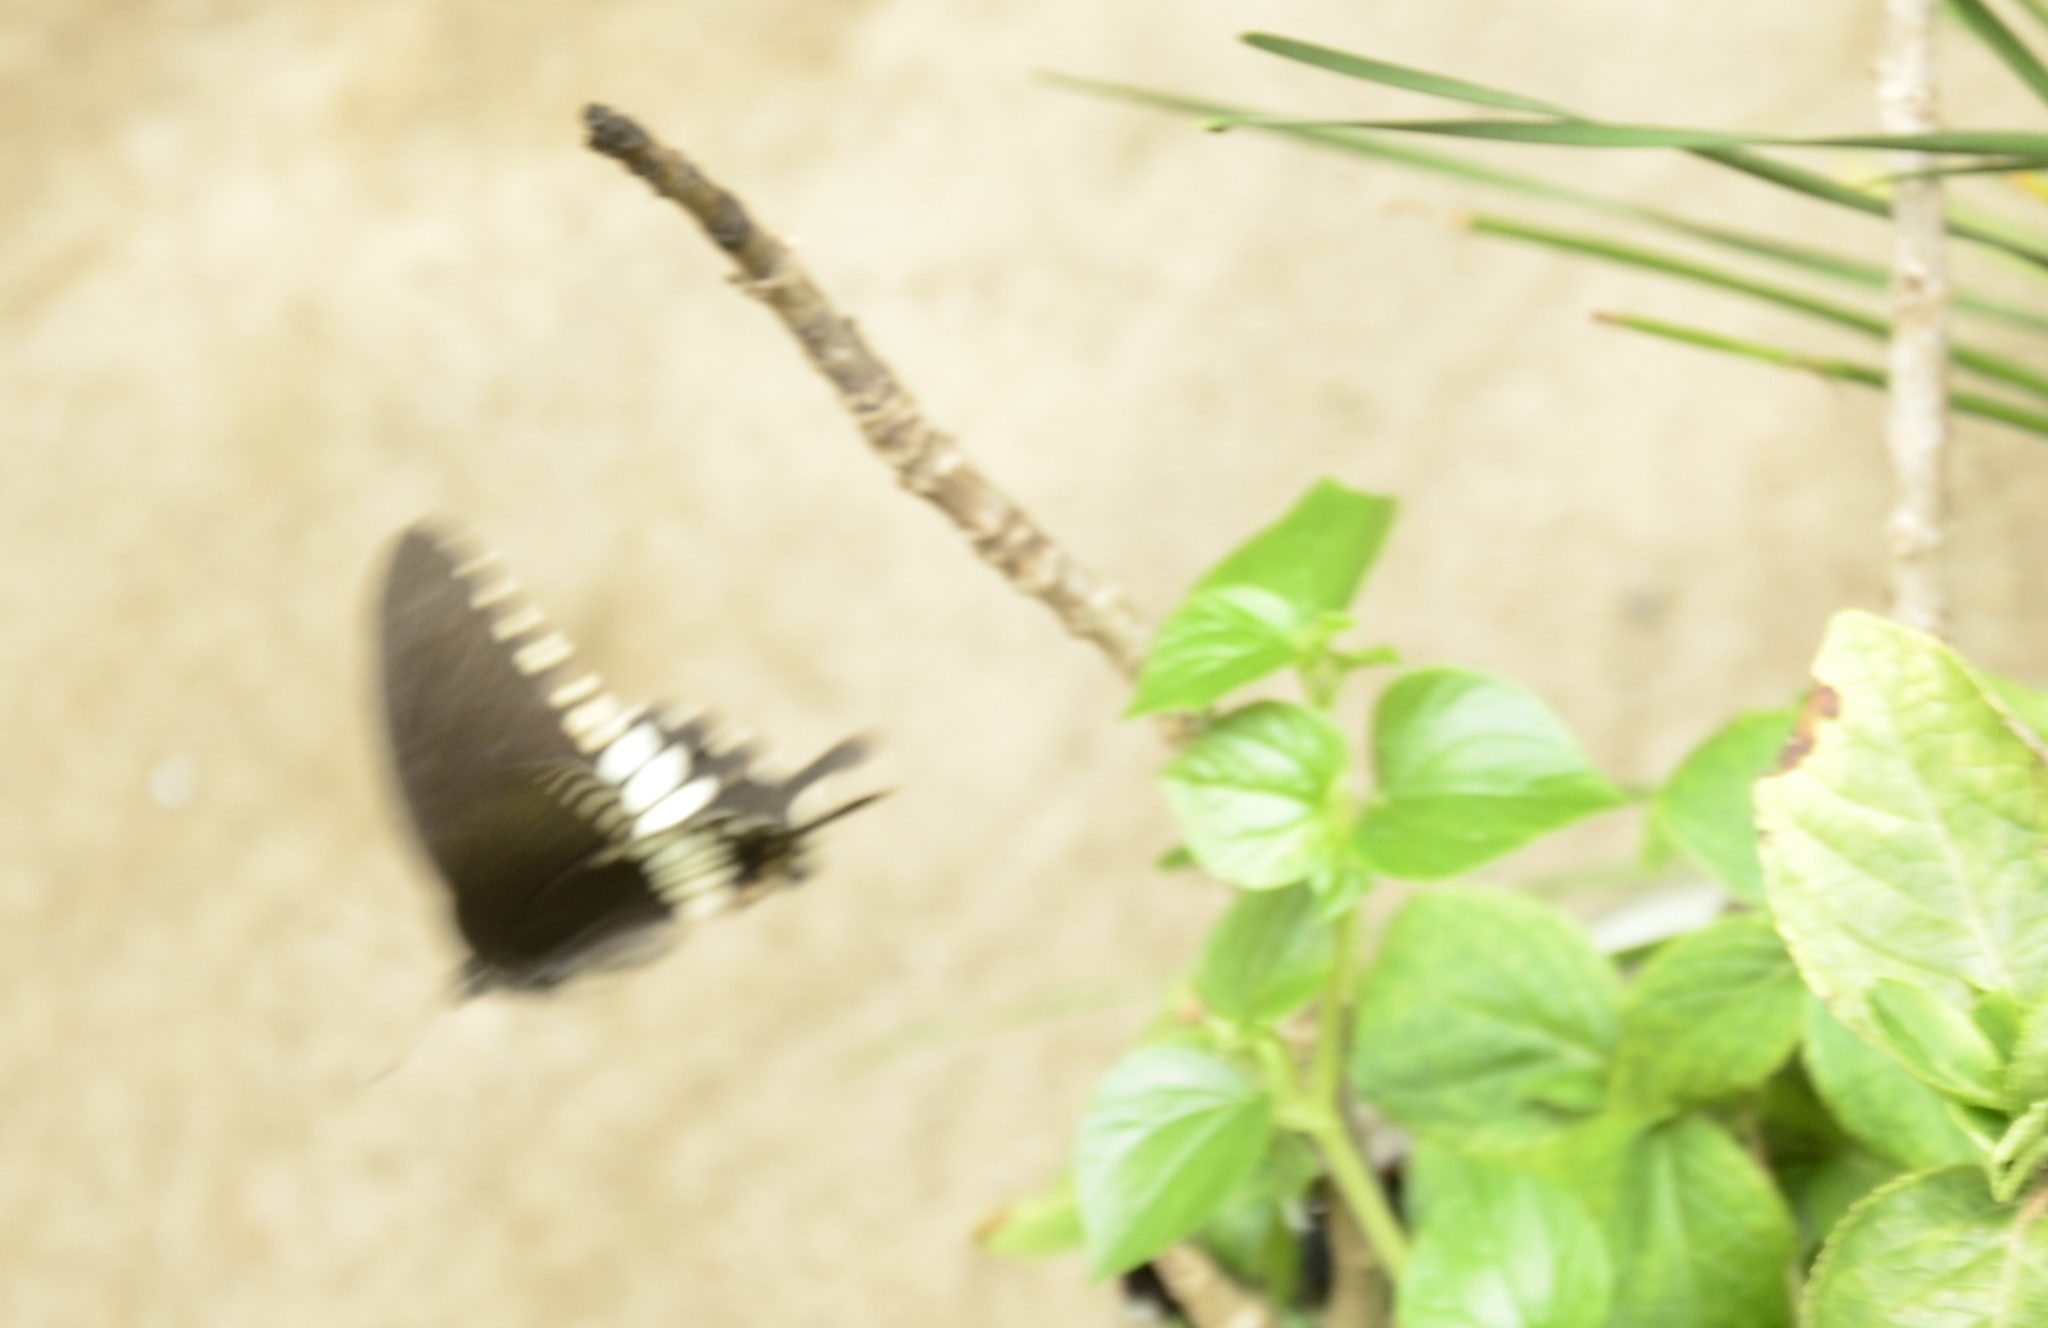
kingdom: Animalia
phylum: Arthropoda
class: Insecta
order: Lepidoptera
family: Papilionidae
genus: Papilio
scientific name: Papilio polytes
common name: Common mormon
